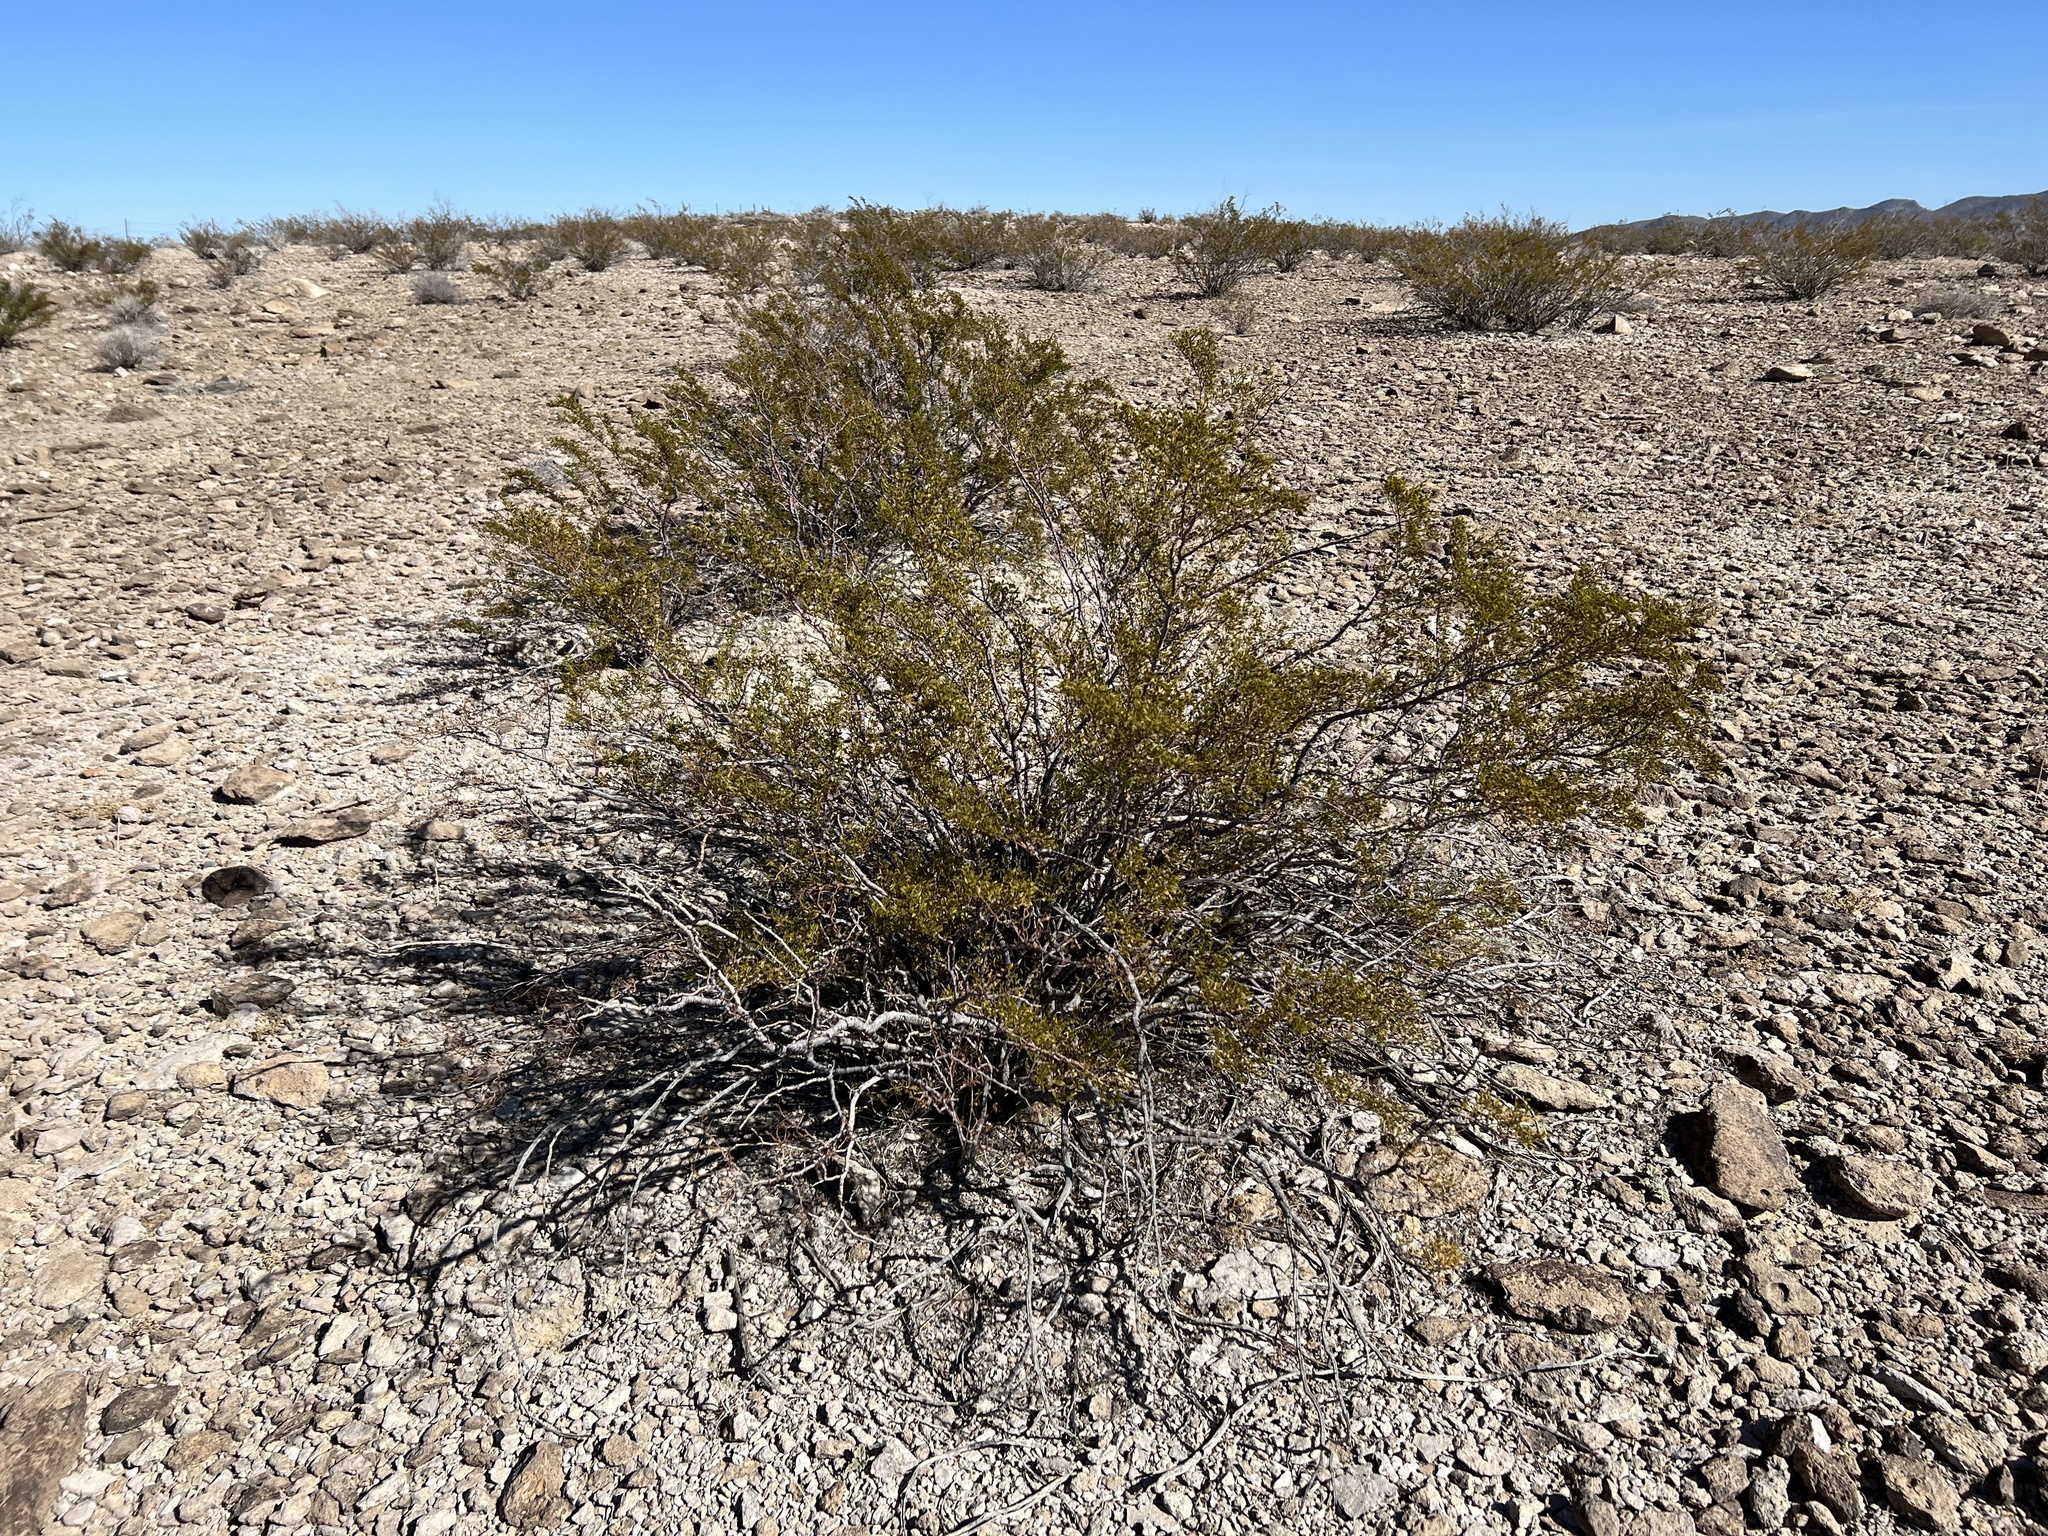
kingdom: Plantae
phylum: Tracheophyta
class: Magnoliopsida
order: Zygophyllales
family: Zygophyllaceae
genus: Larrea
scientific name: Larrea tridentata
